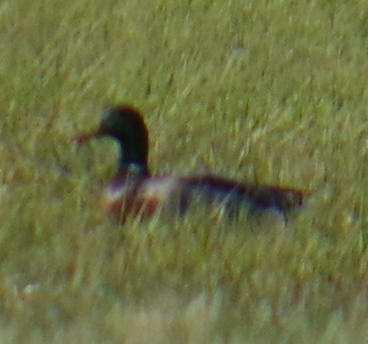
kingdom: Animalia
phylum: Chordata
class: Aves
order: Anseriformes
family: Anatidae
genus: Anas
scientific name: Anas platyrhynchos
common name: Mallard
